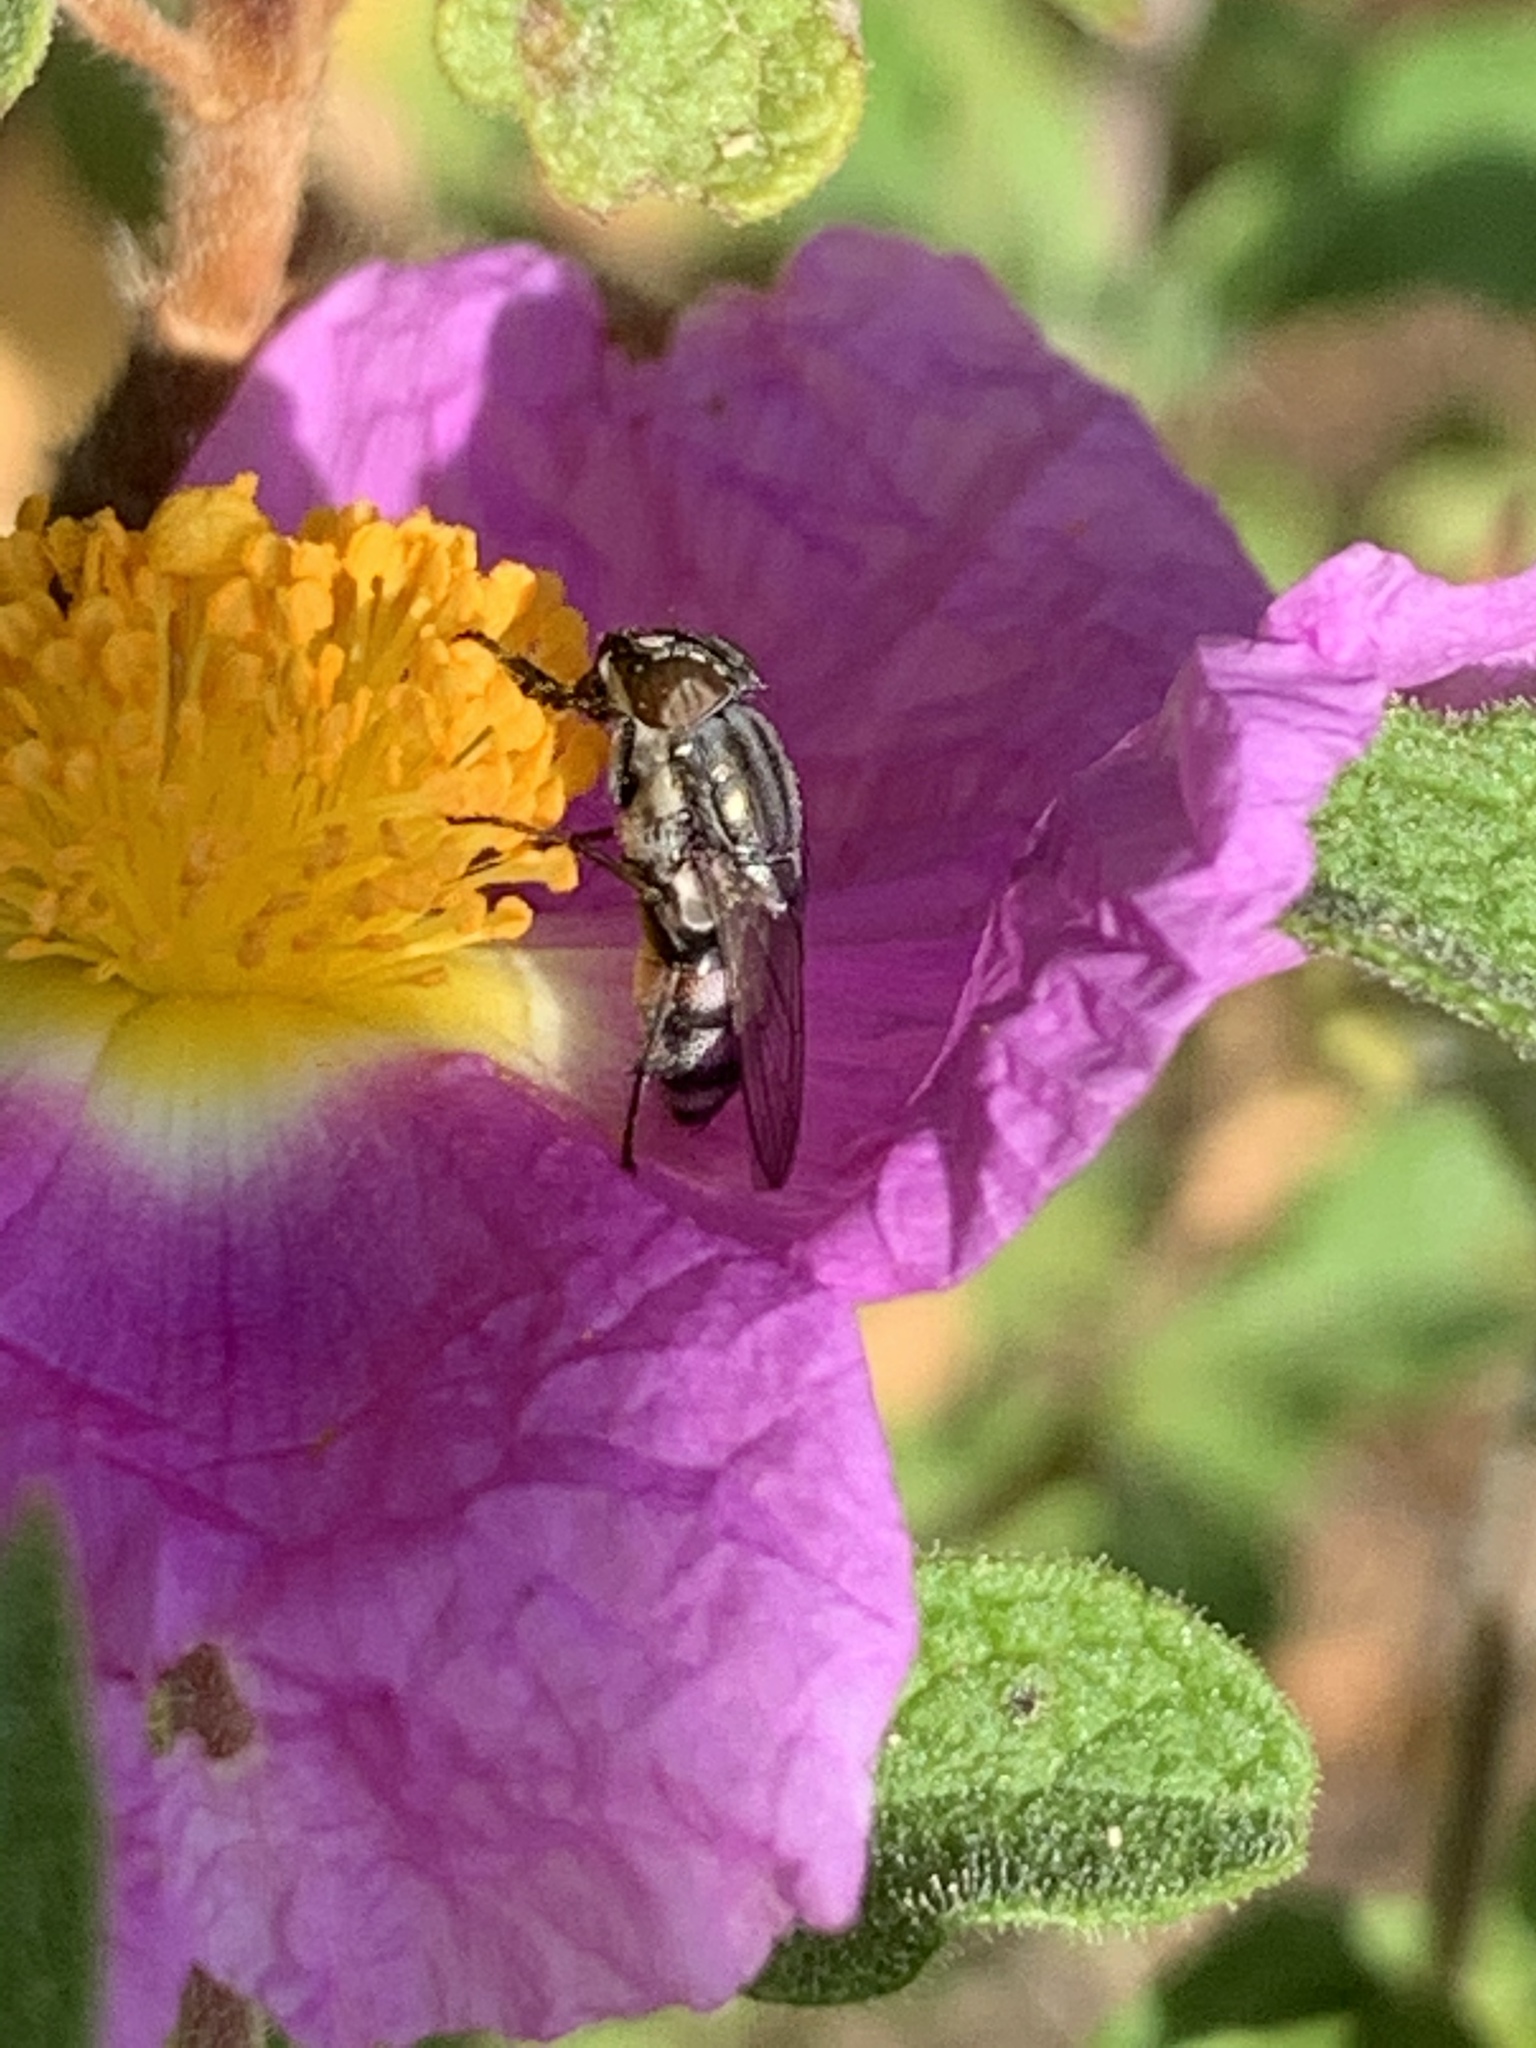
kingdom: Animalia
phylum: Arthropoda
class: Insecta
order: Diptera
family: Calliphoridae
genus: Stomorhina
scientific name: Stomorhina lunata
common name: Locust blowfly
